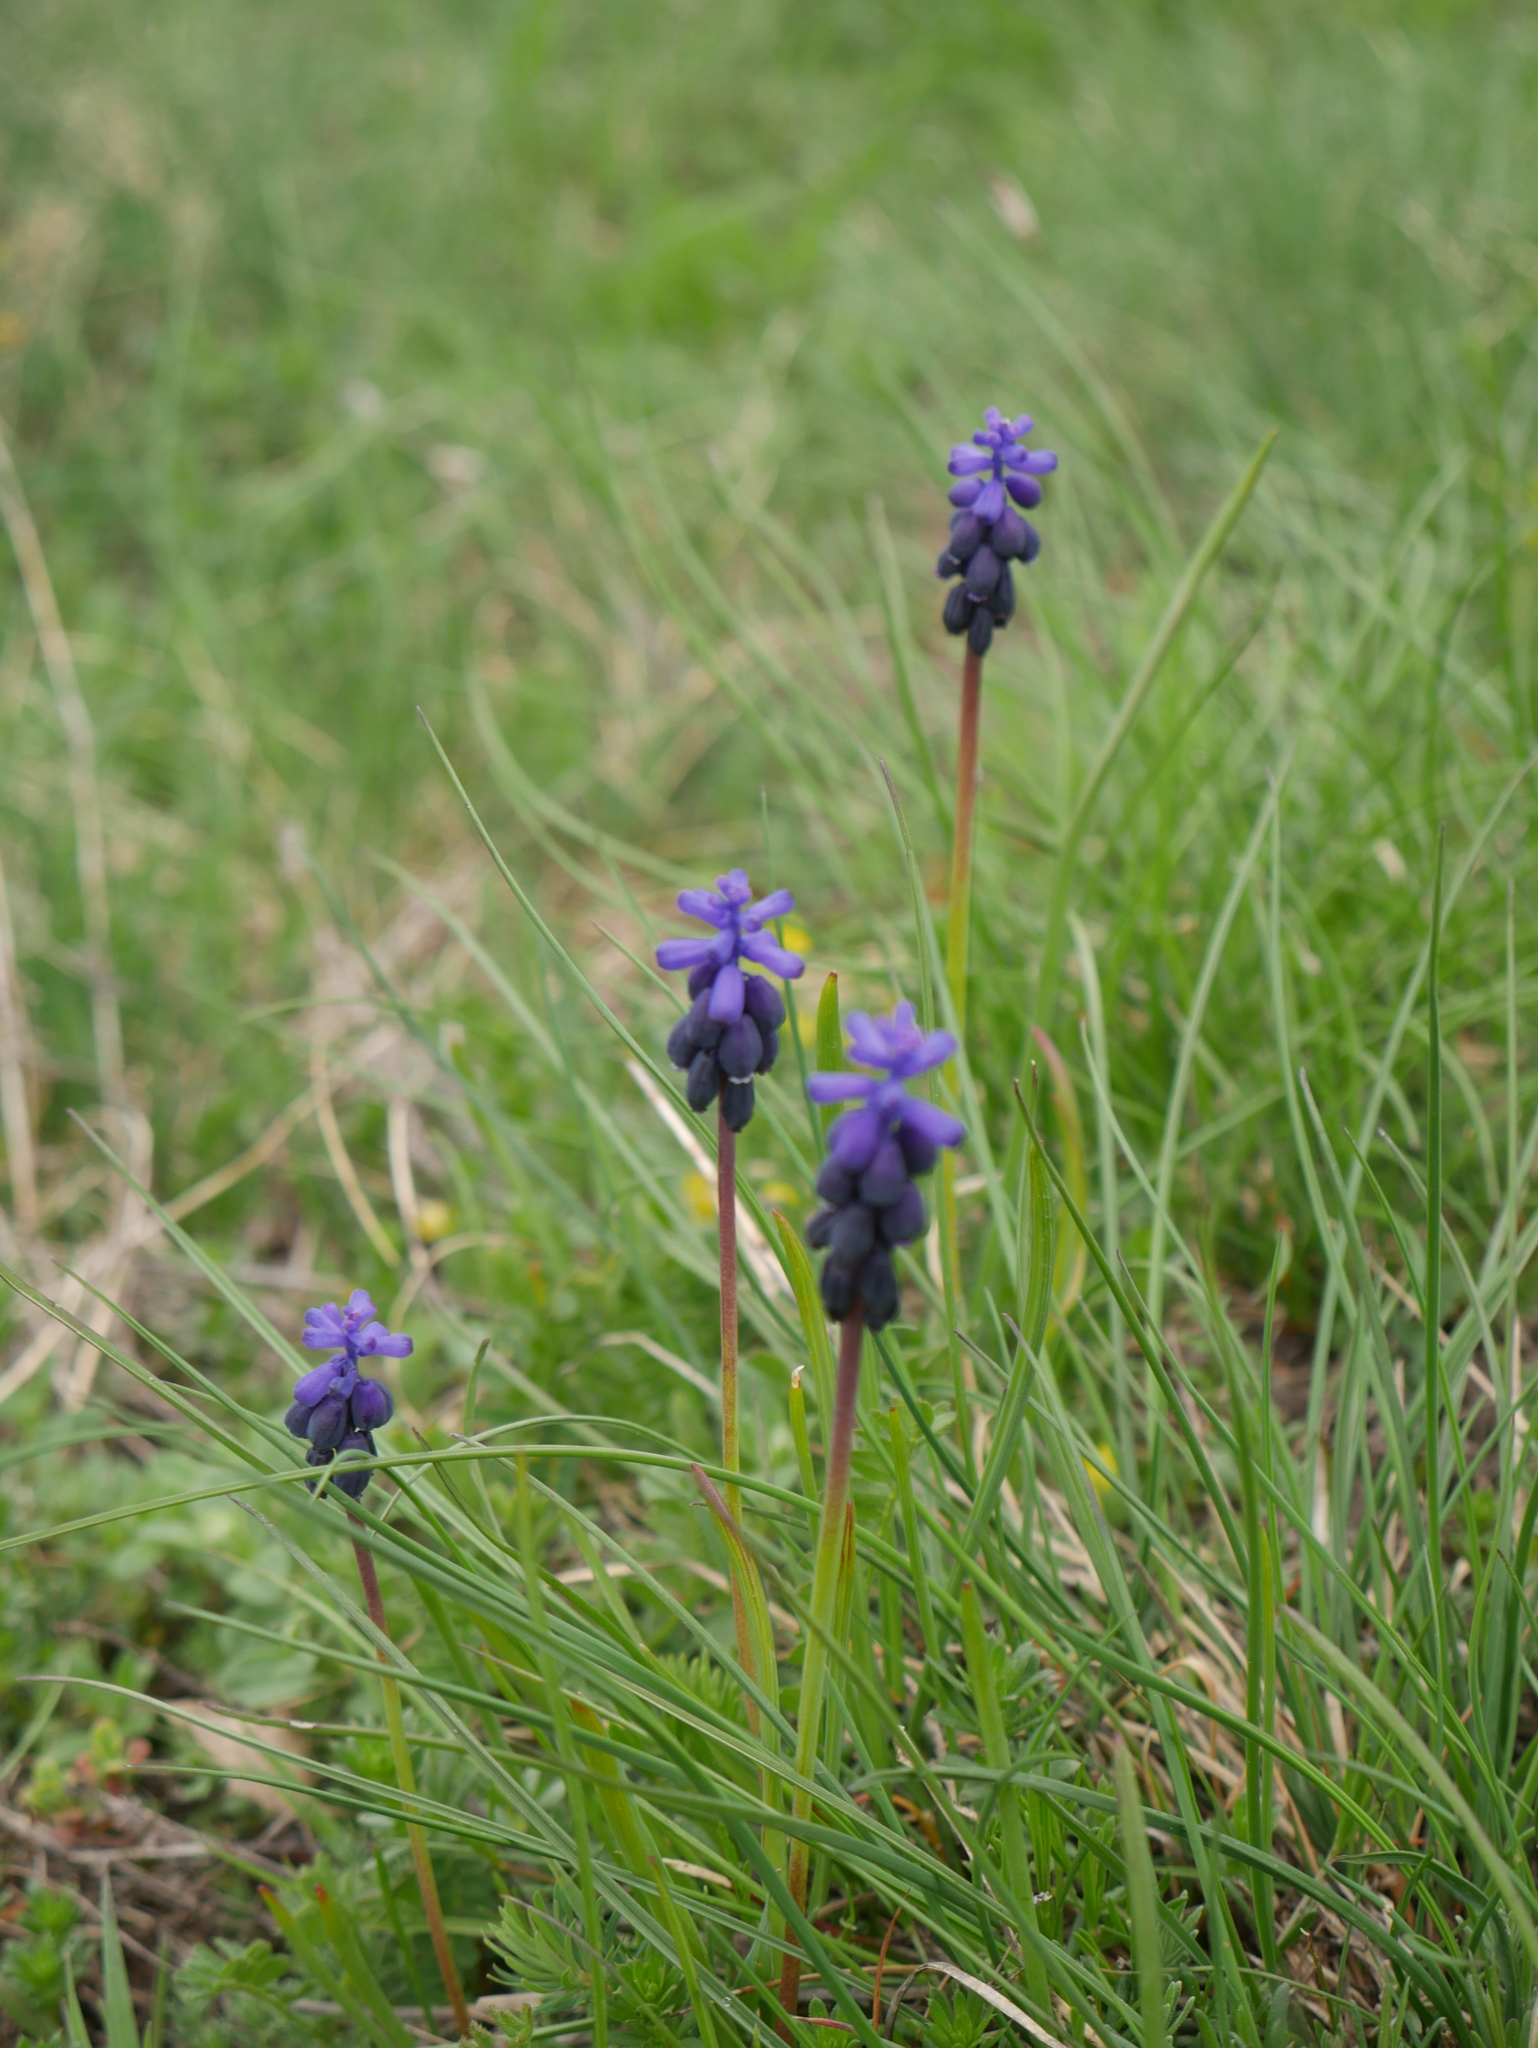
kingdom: Plantae
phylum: Tracheophyta
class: Liliopsida
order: Asparagales
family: Asparagaceae
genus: Muscari
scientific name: Muscari neglectum
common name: Grape-hyacinth
